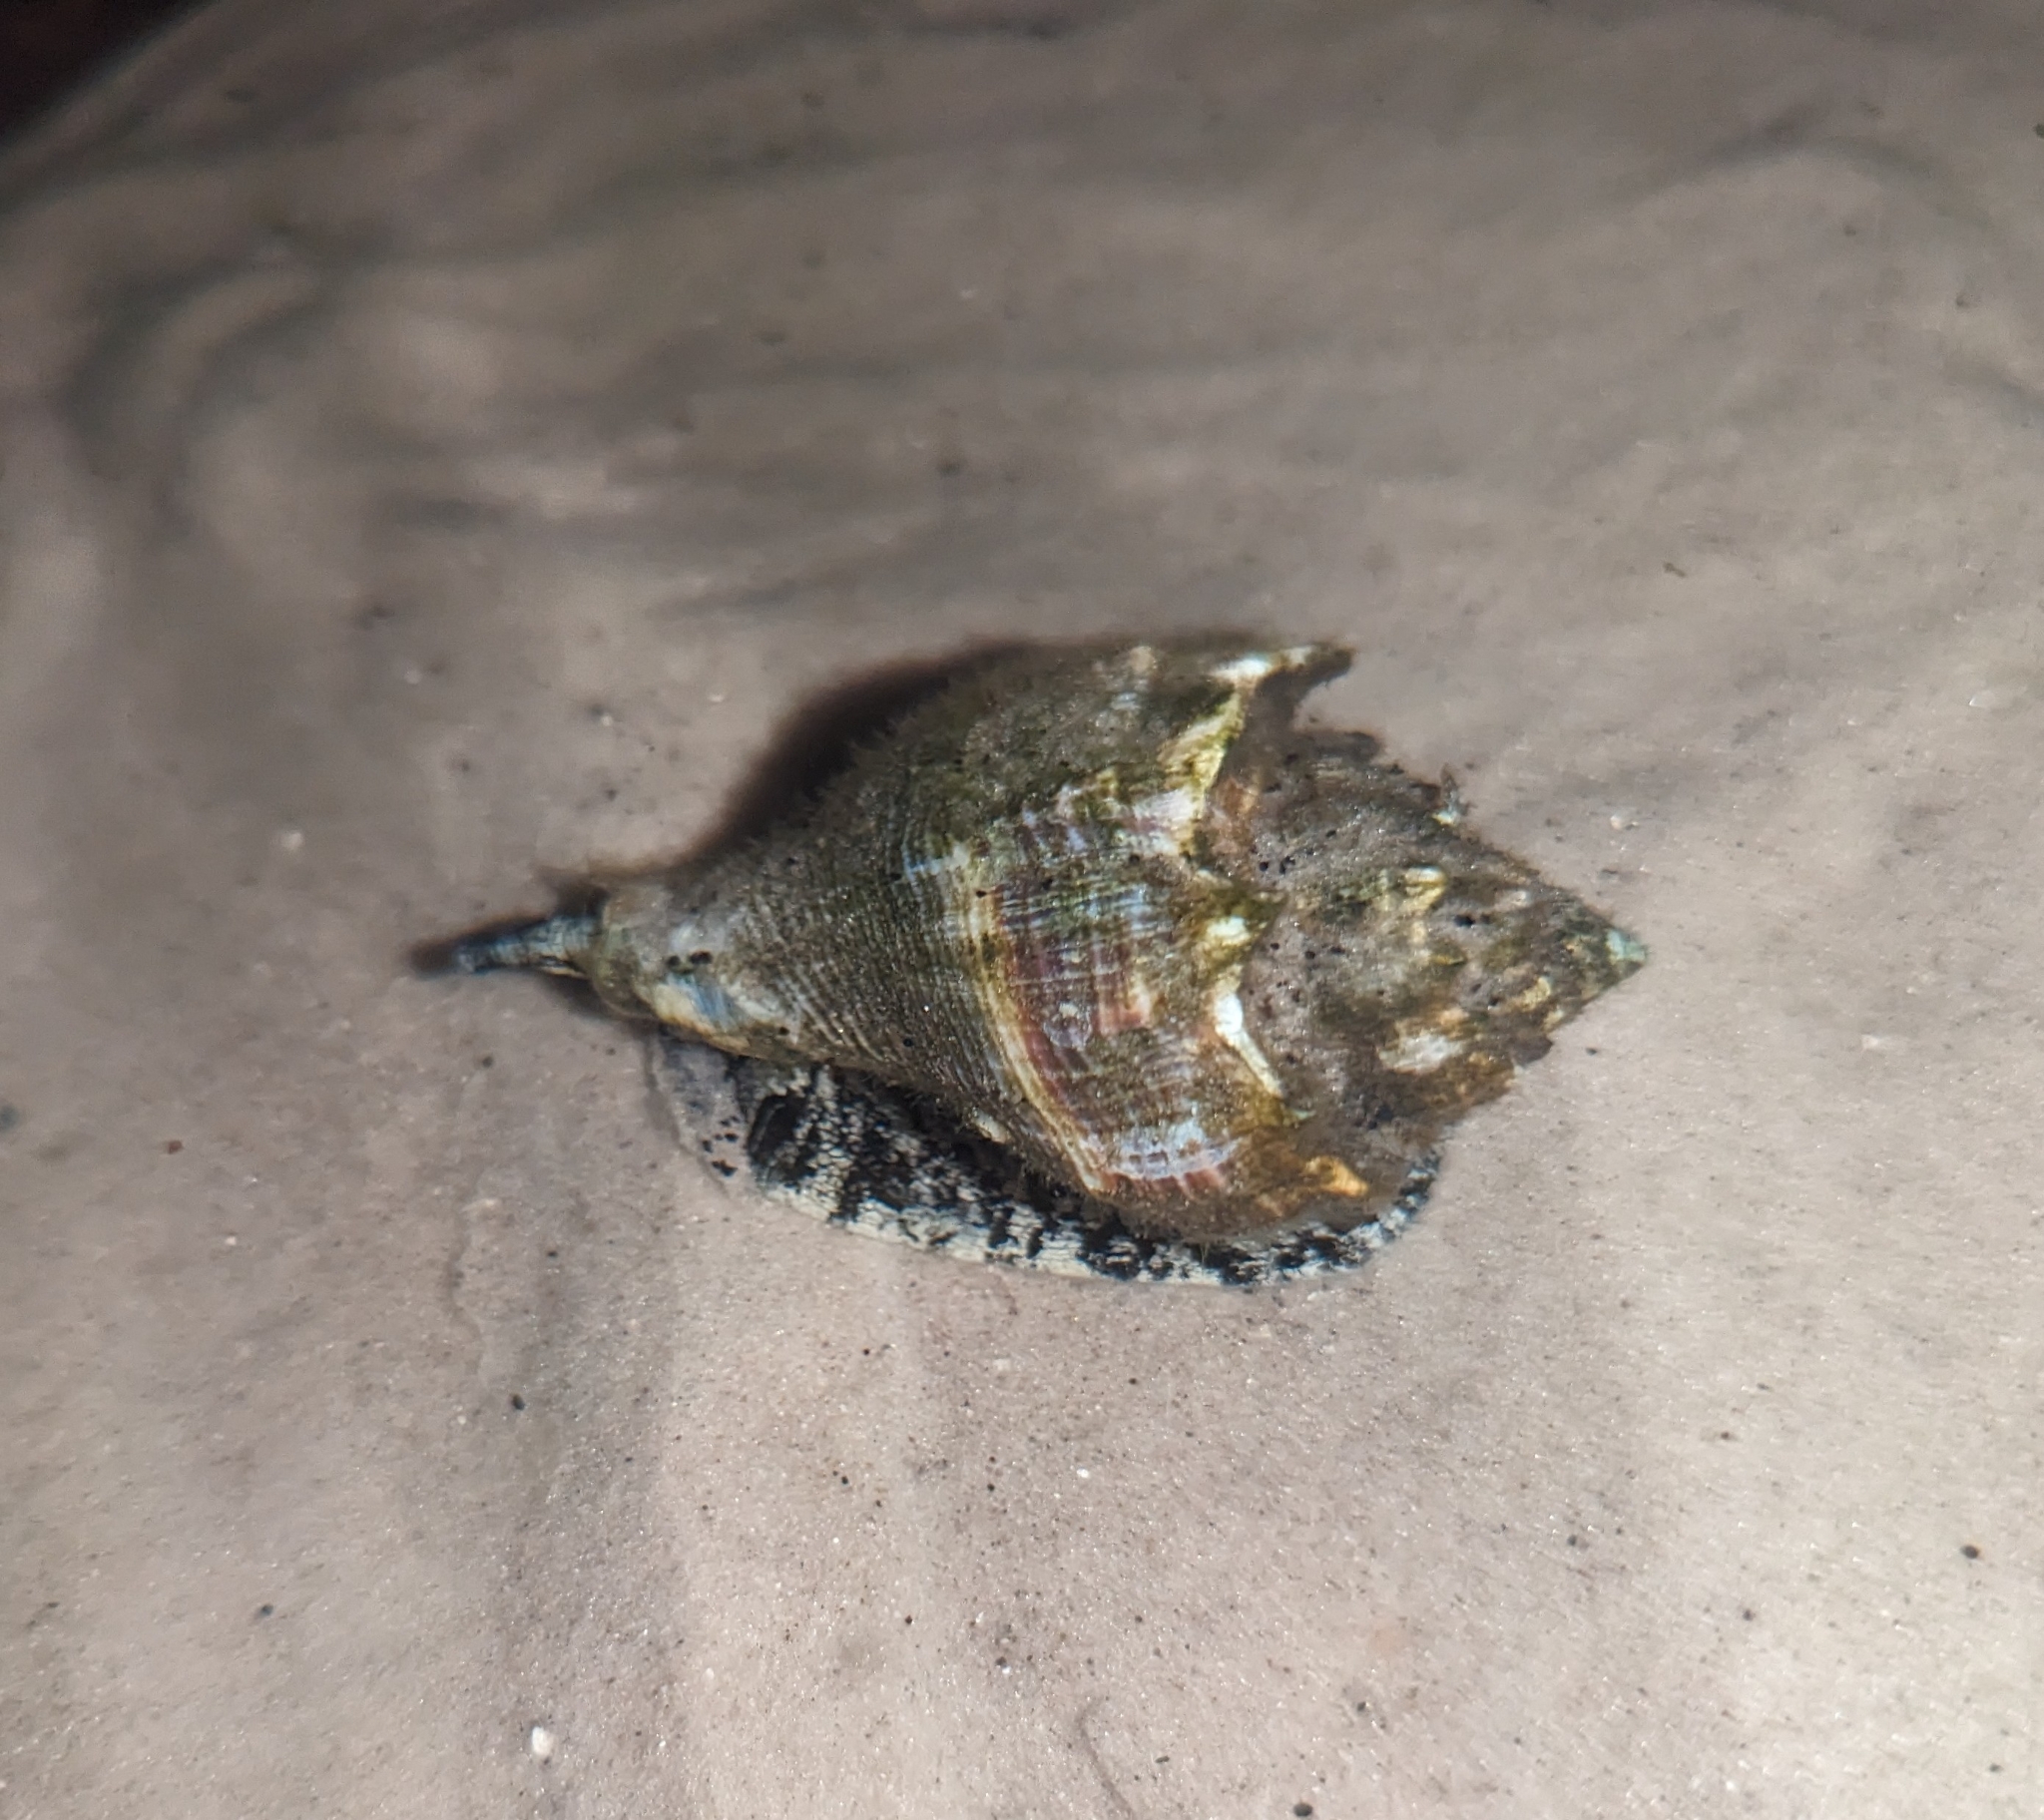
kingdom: Animalia
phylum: Mollusca
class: Gastropoda
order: Neogastropoda
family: Melongenidae
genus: Melongena
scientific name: Melongena corona
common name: American crown conch
